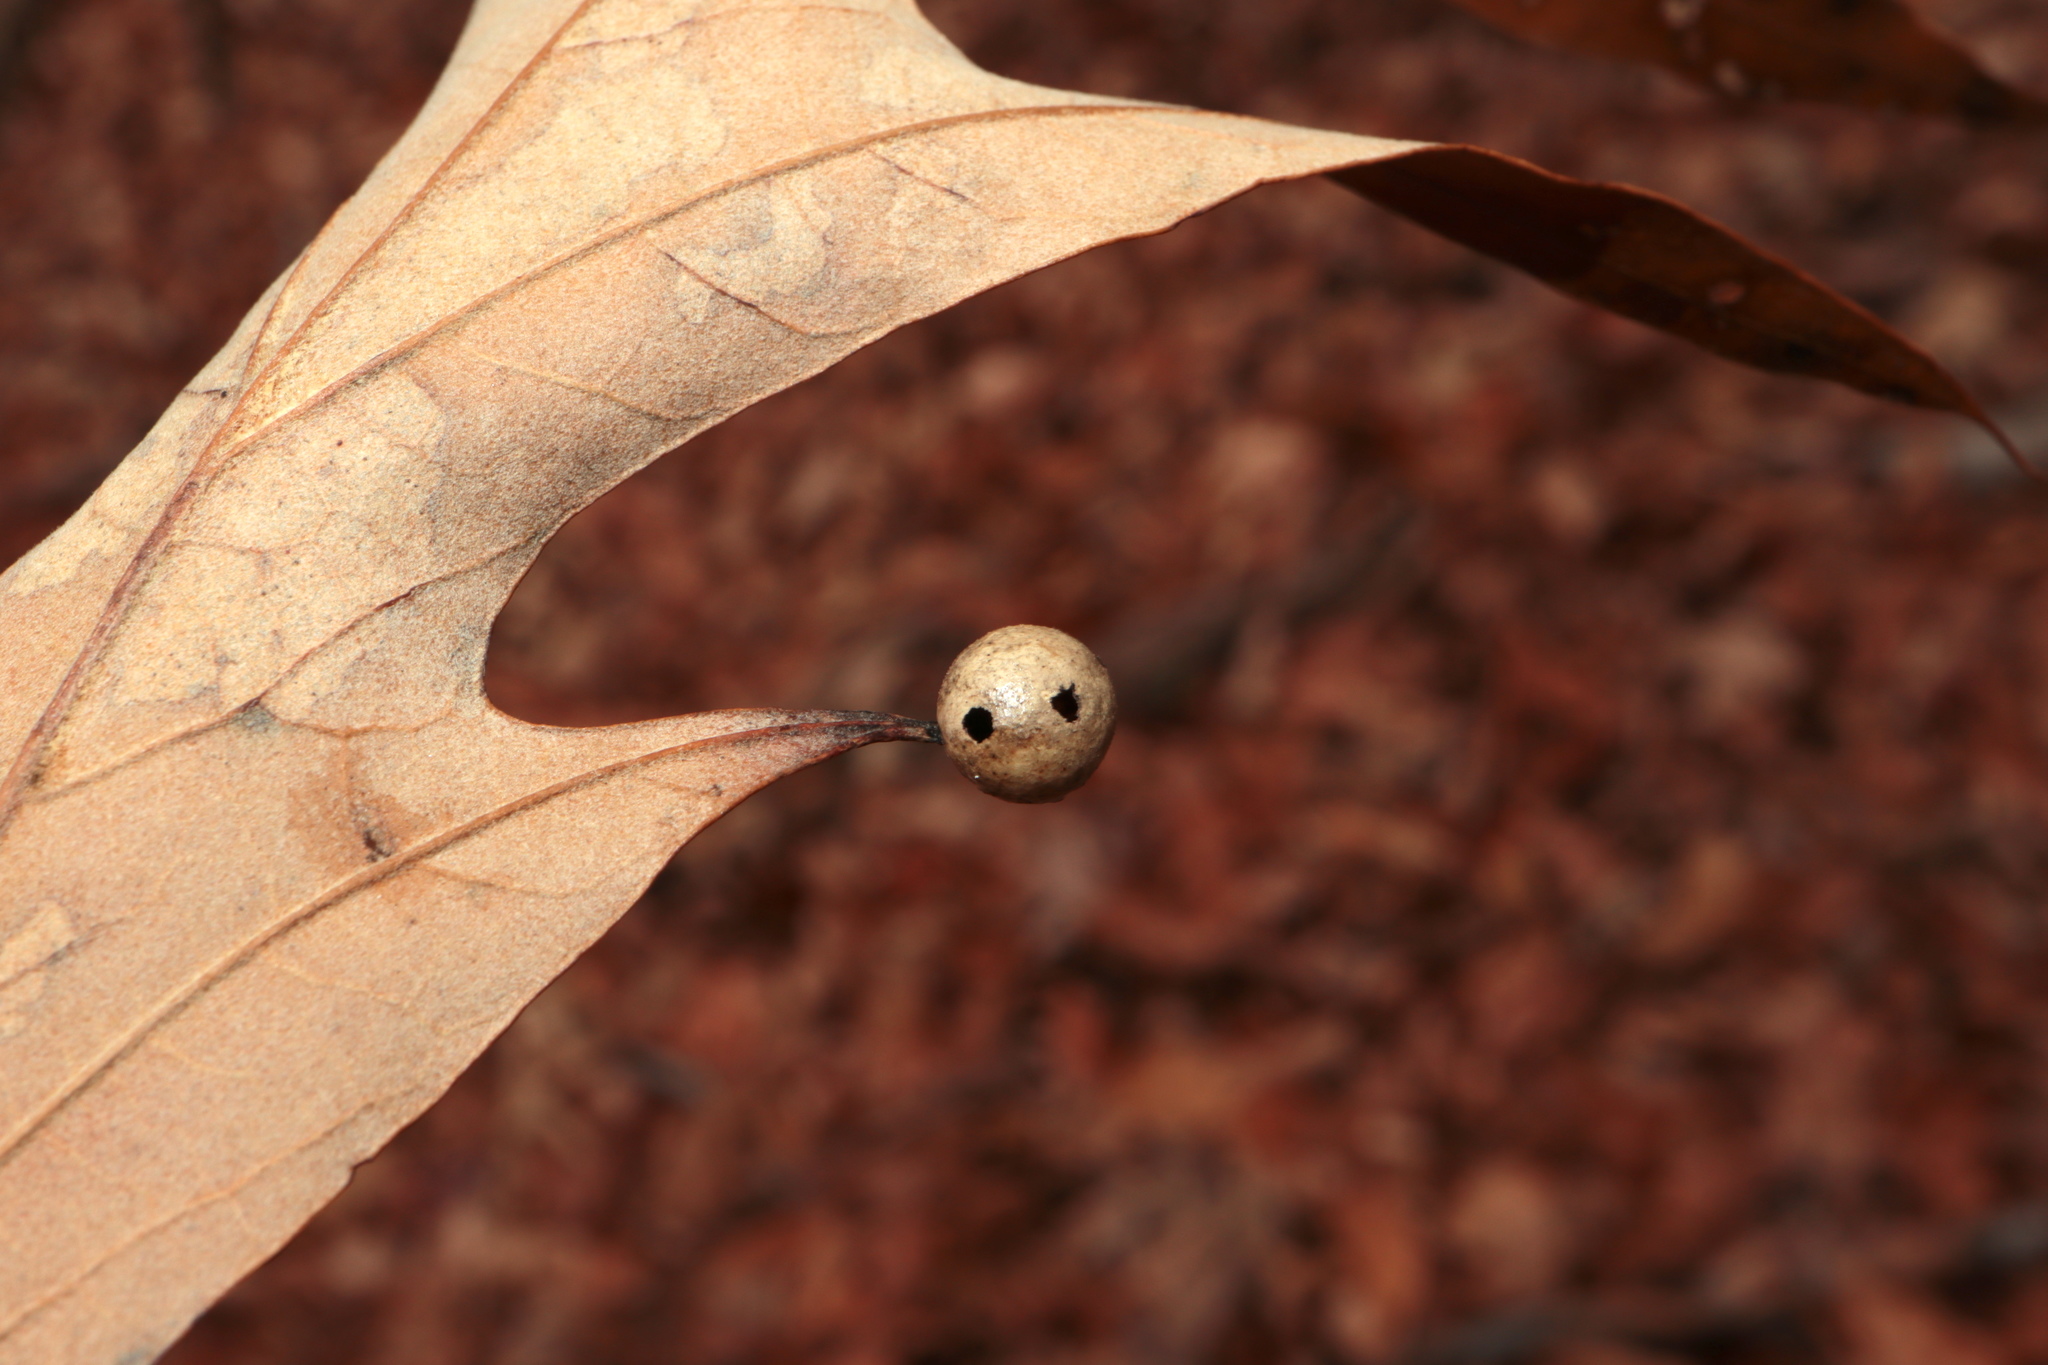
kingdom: Animalia
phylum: Arthropoda
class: Insecta
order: Hymenoptera
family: Cynipidae
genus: Amphibolips
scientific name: Amphibolips
